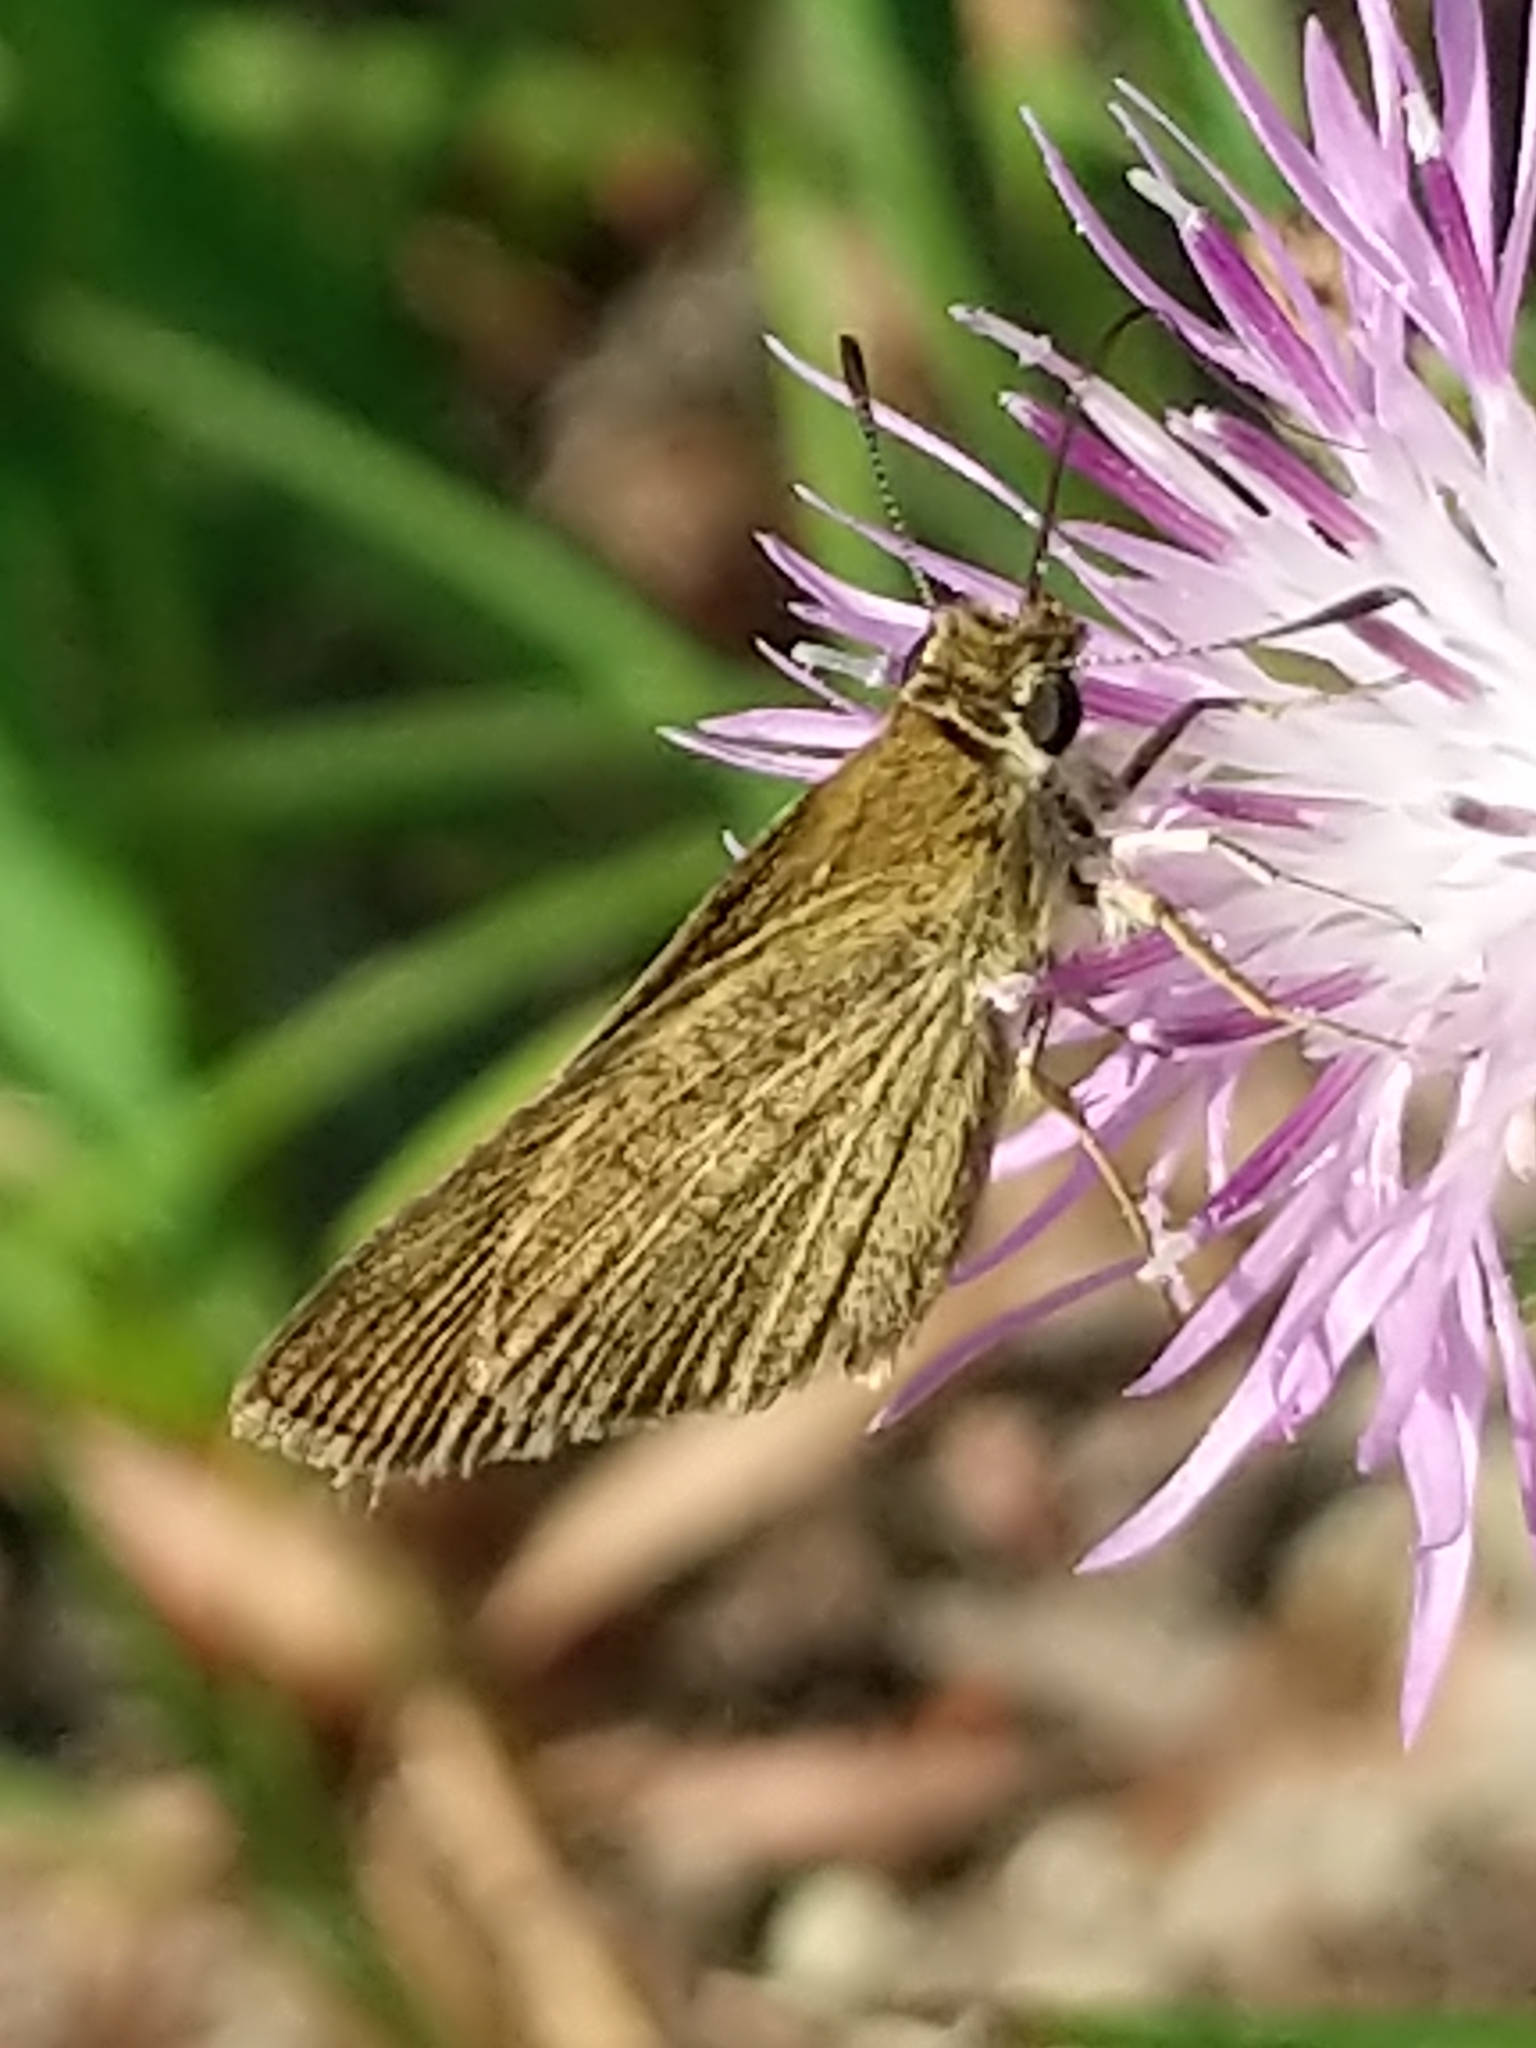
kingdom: Animalia
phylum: Arthropoda
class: Insecta
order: Lepidoptera
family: Hesperiidae
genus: Nastra
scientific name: Nastra lherminier
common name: Swarthy skipper
